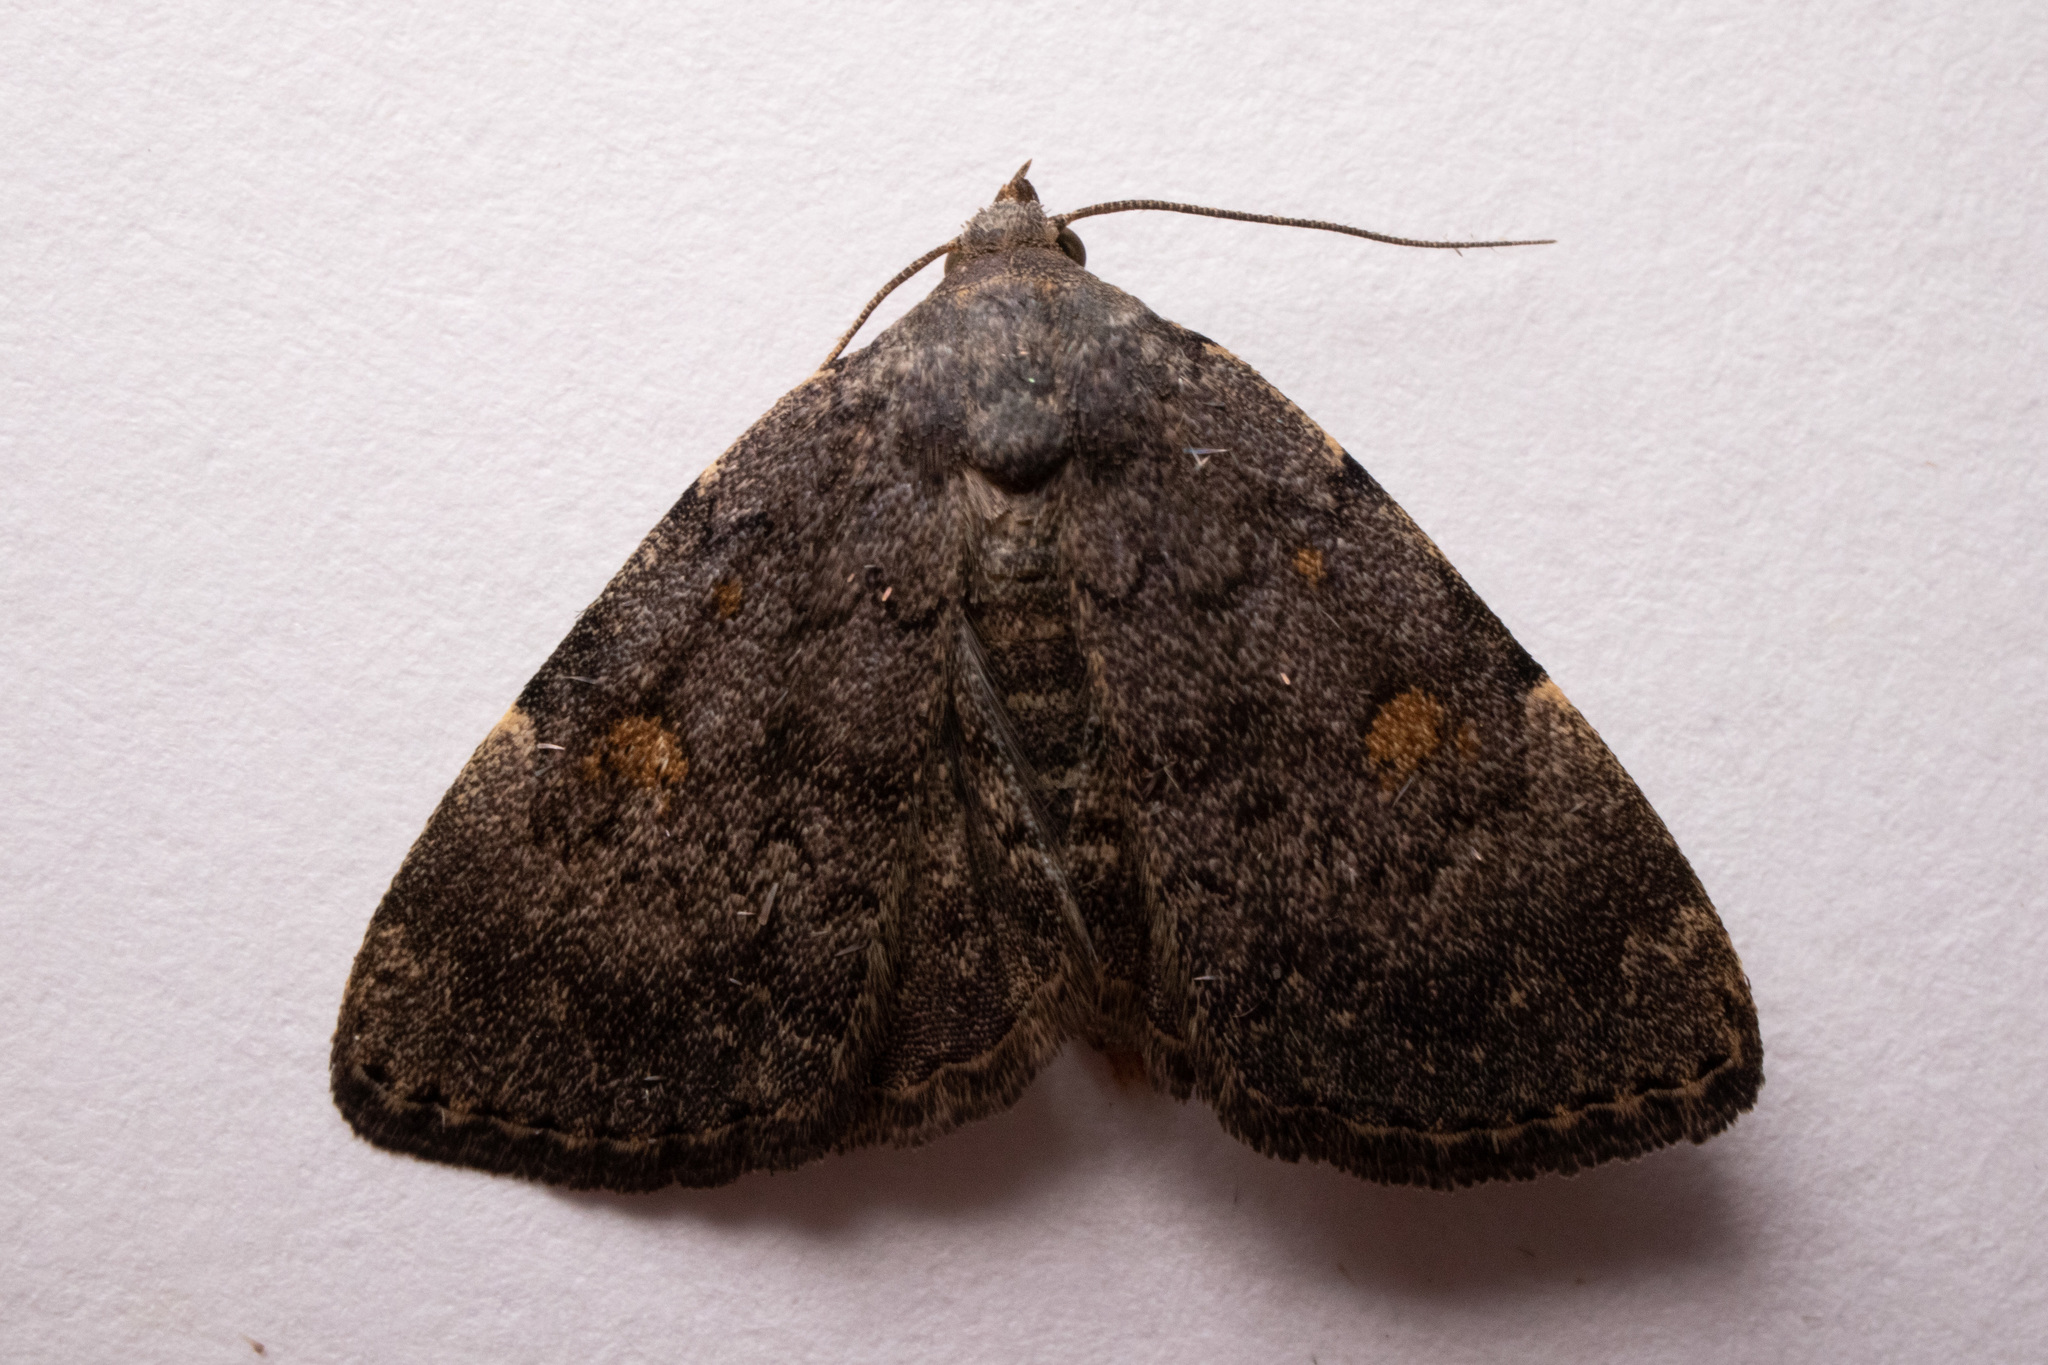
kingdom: Animalia
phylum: Arthropoda
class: Insecta
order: Lepidoptera
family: Erebidae
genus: Idia
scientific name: Idia aemula
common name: Common idia moth
